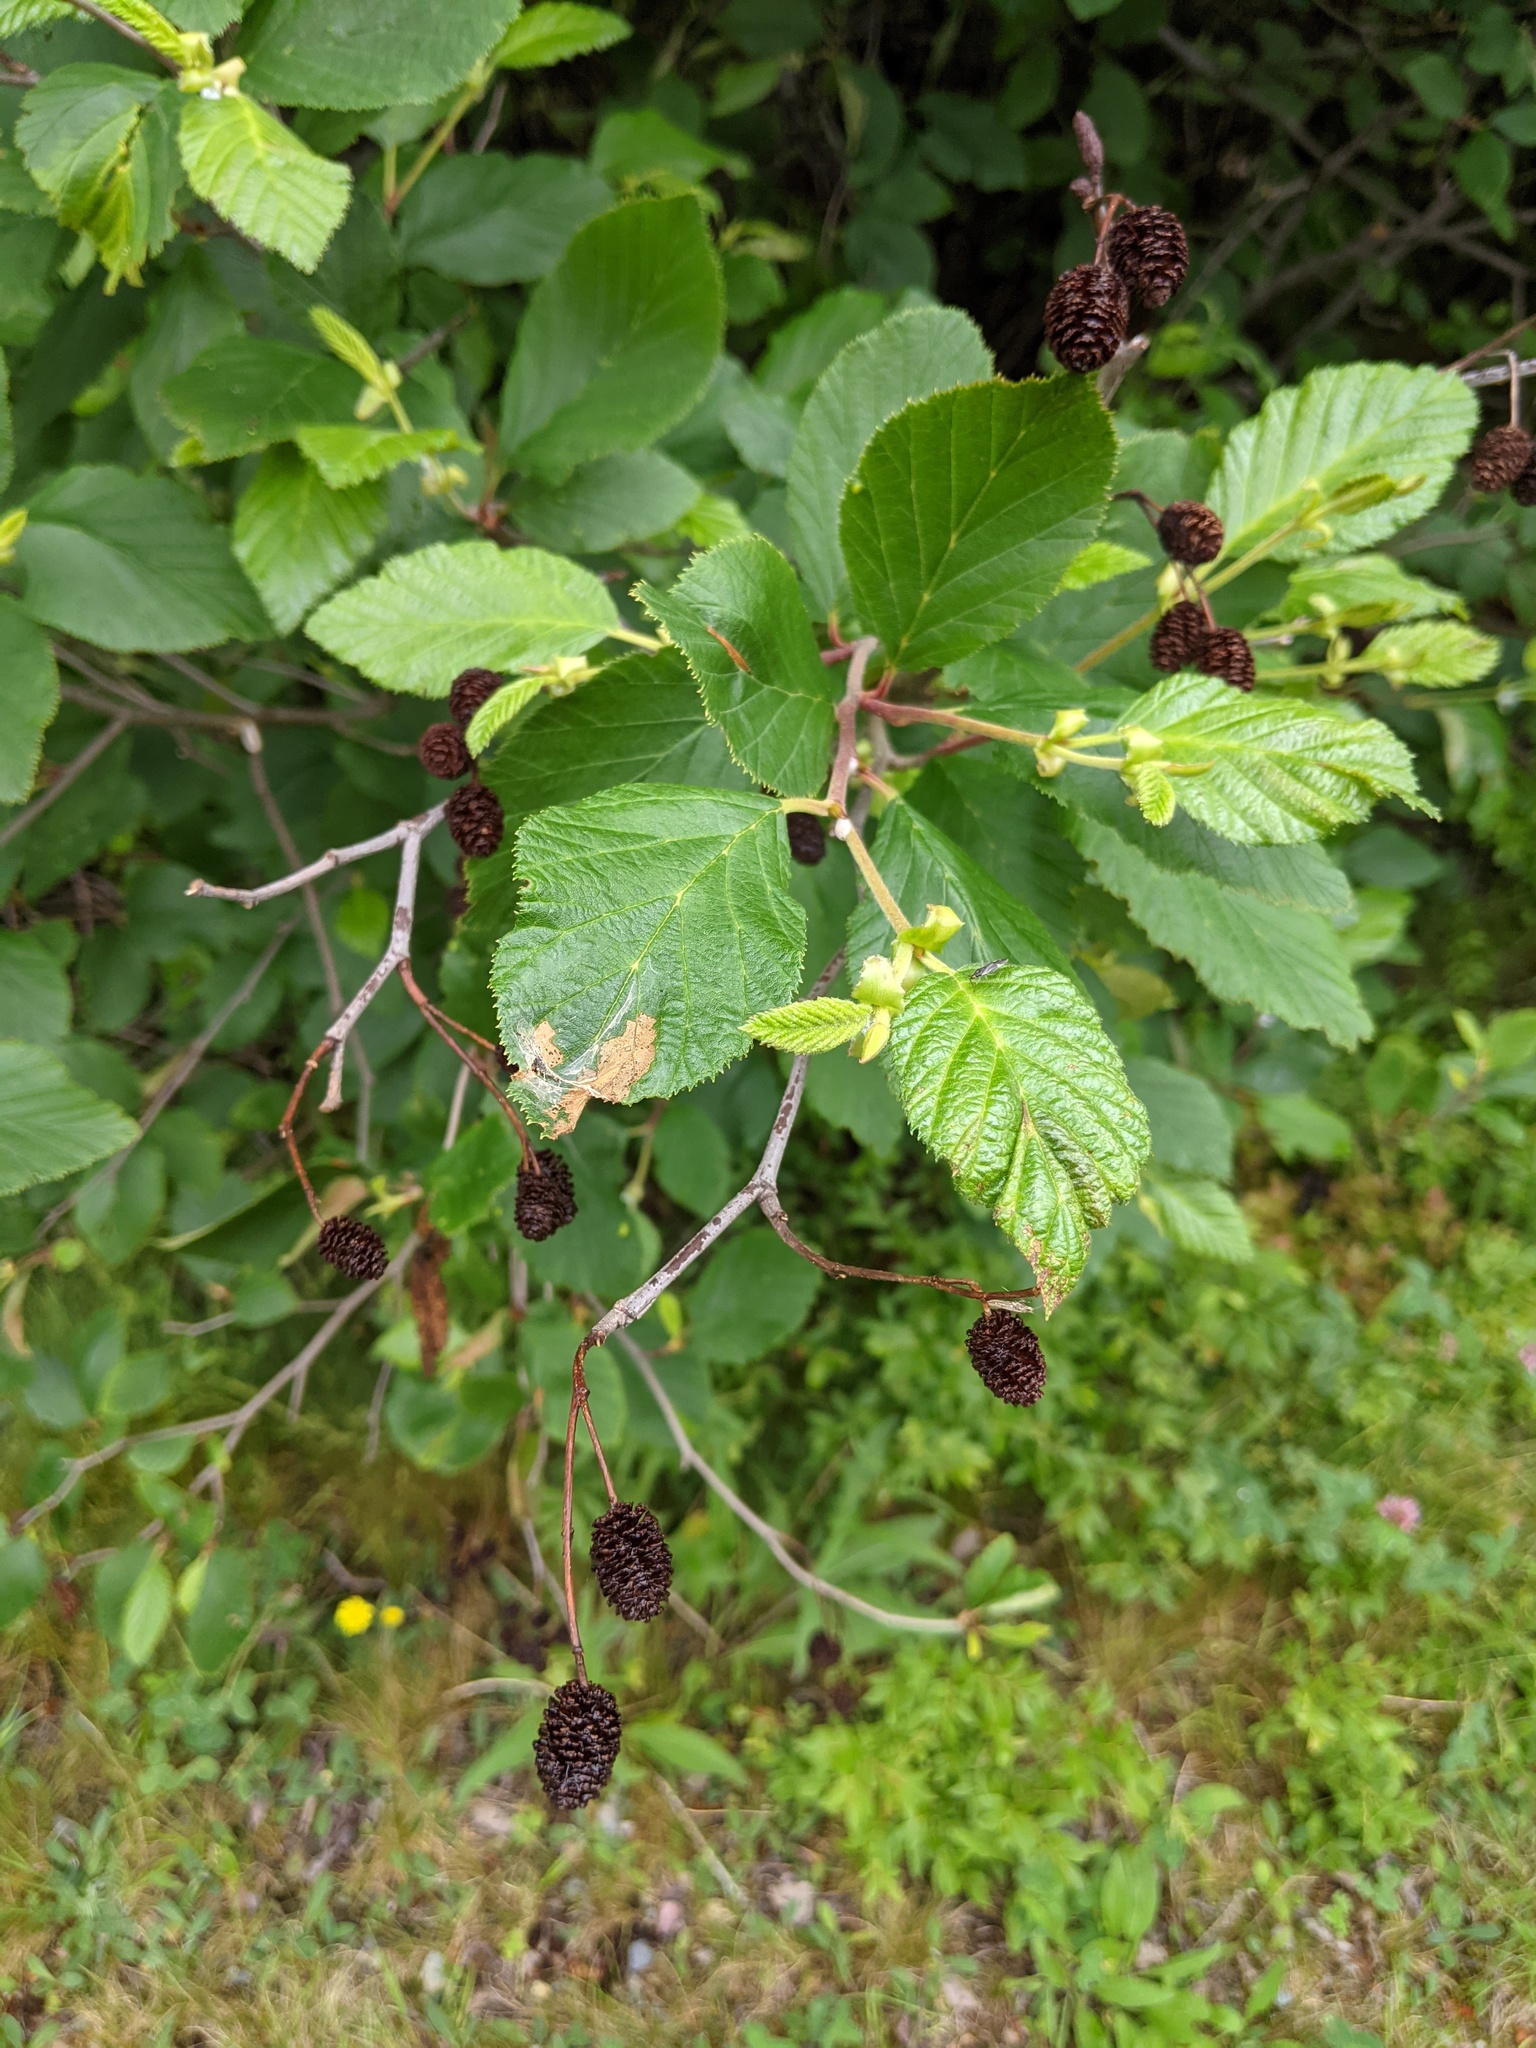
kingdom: Plantae
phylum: Tracheophyta
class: Magnoliopsida
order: Fagales
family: Betulaceae
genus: Alnus
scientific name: Alnus alnobetula
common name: Green alder
